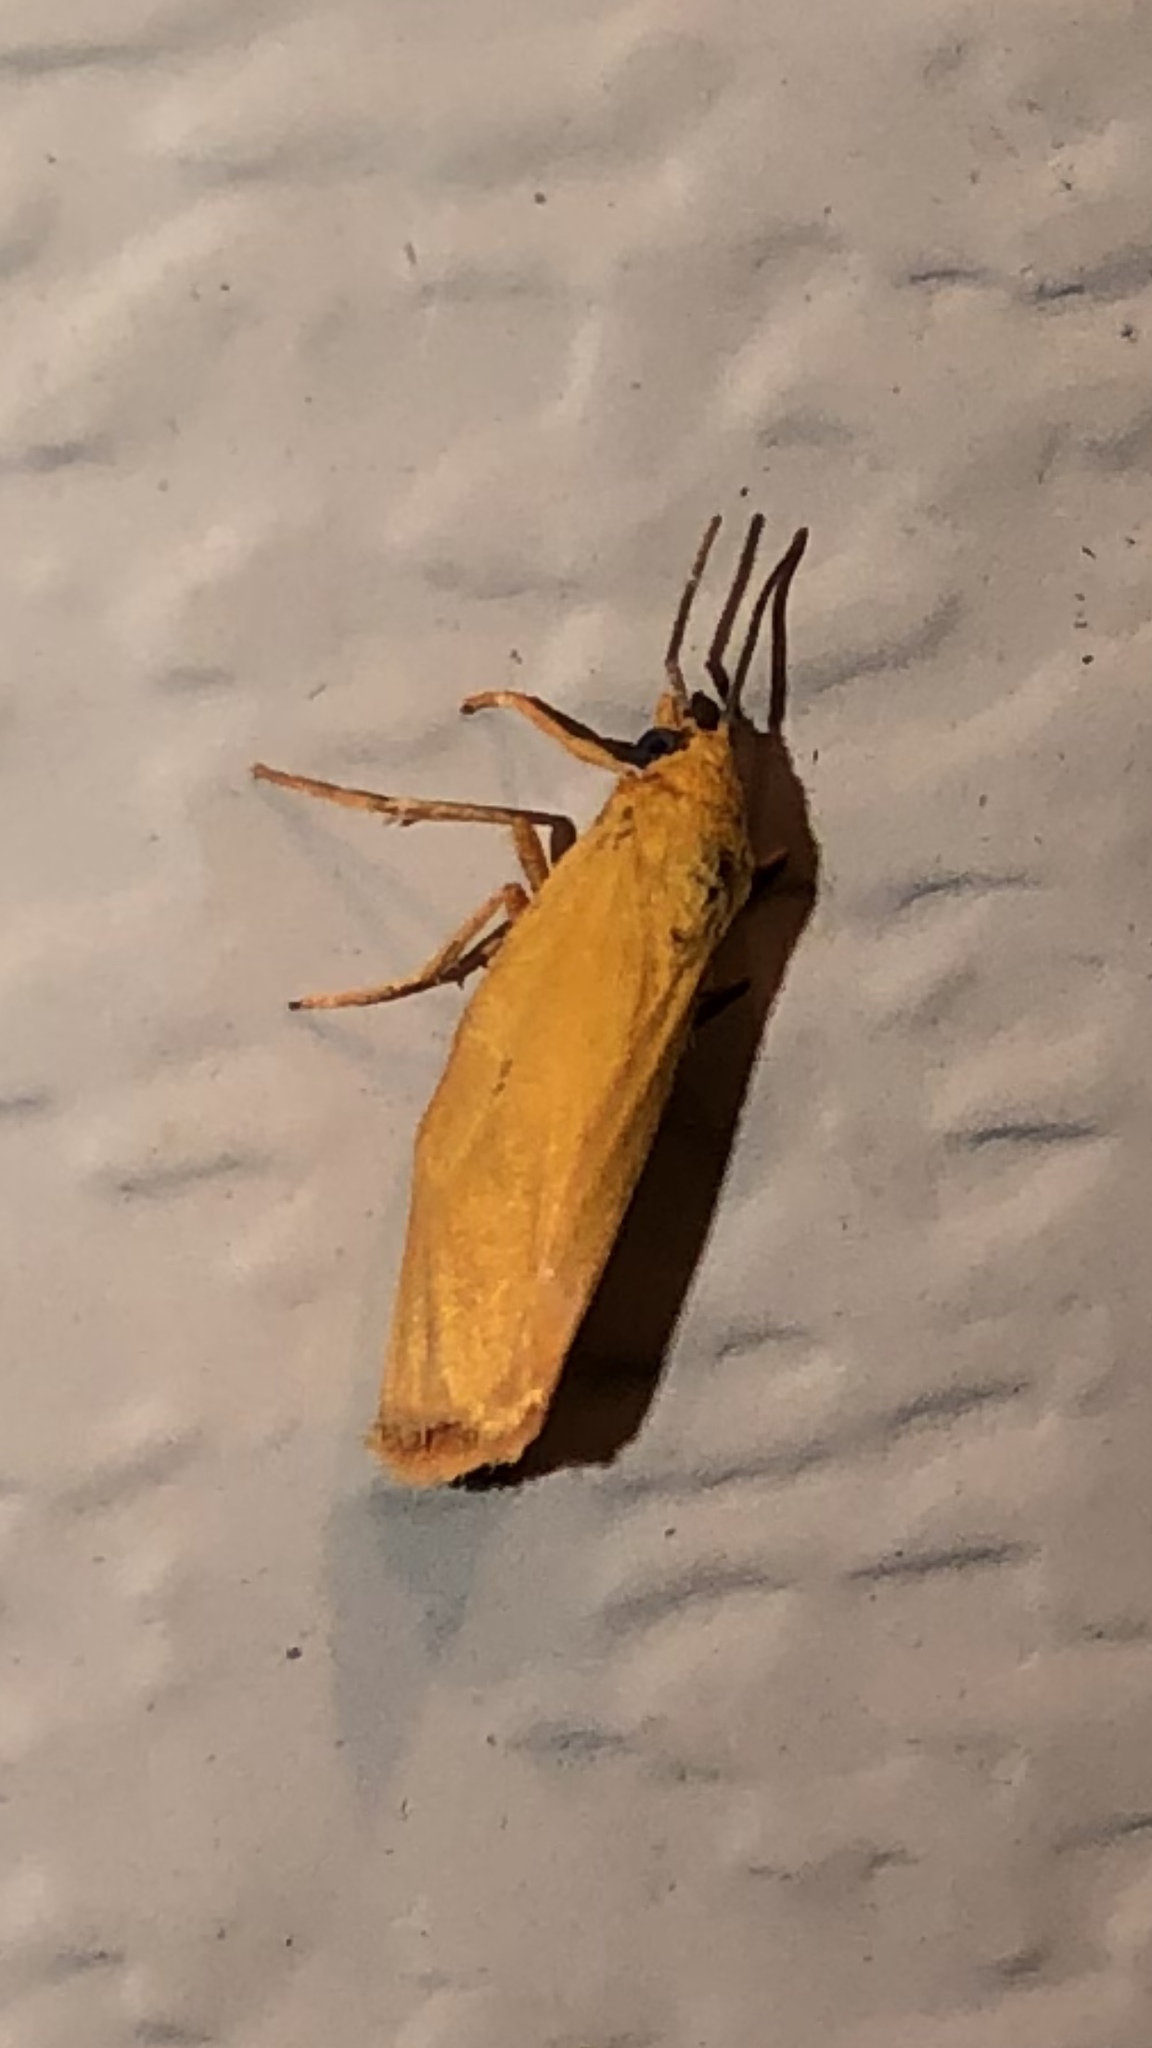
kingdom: Animalia
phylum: Arthropoda
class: Insecta
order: Lepidoptera
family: Erebidae
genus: Virbia
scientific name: Virbia aurantiaca
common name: Orange virbia moth
